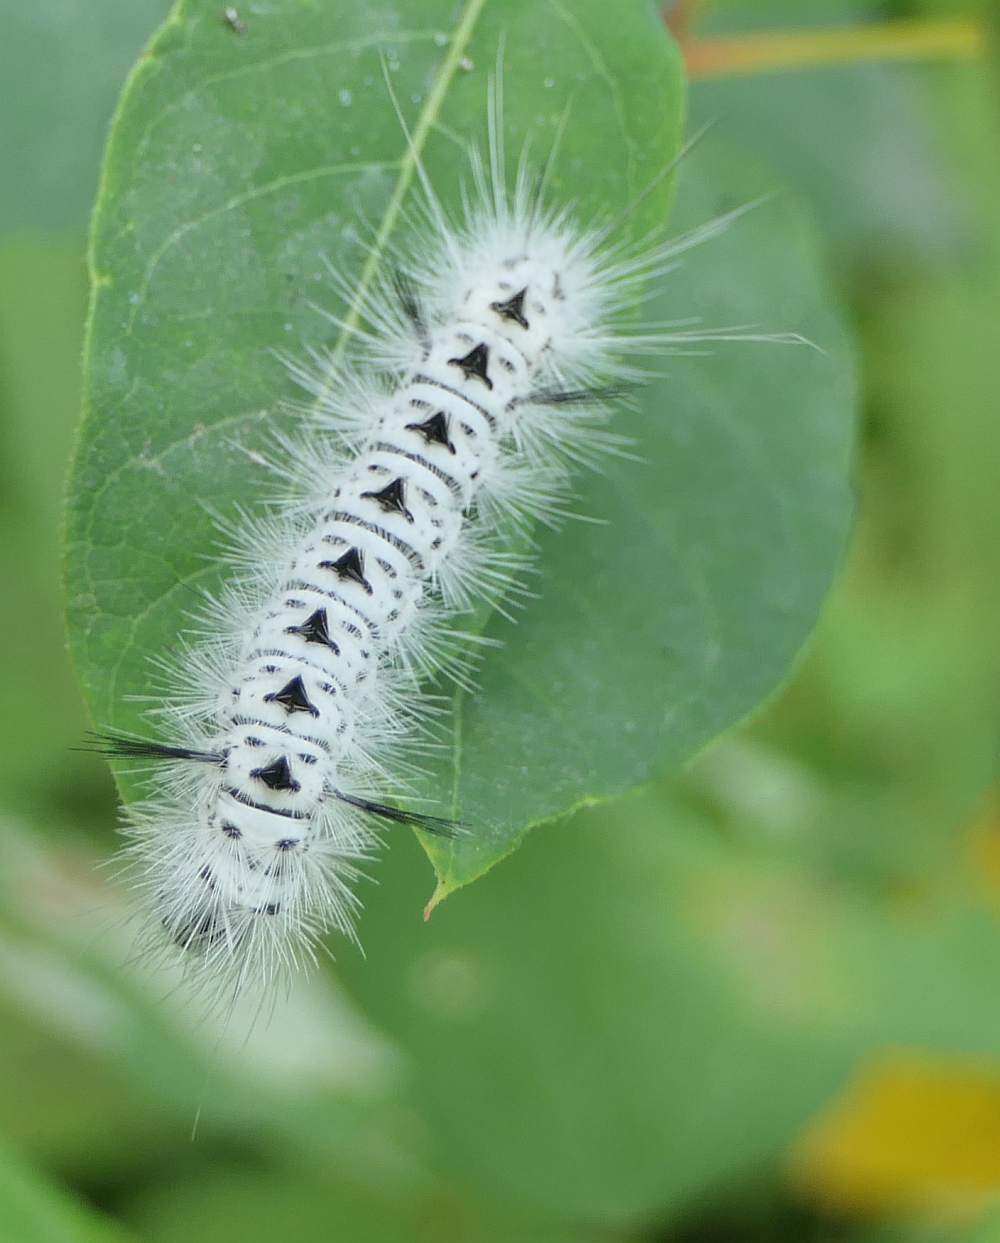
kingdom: Animalia
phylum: Arthropoda
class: Insecta
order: Lepidoptera
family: Erebidae
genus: Lophocampa
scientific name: Lophocampa caryae
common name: Hickory tussock moth
